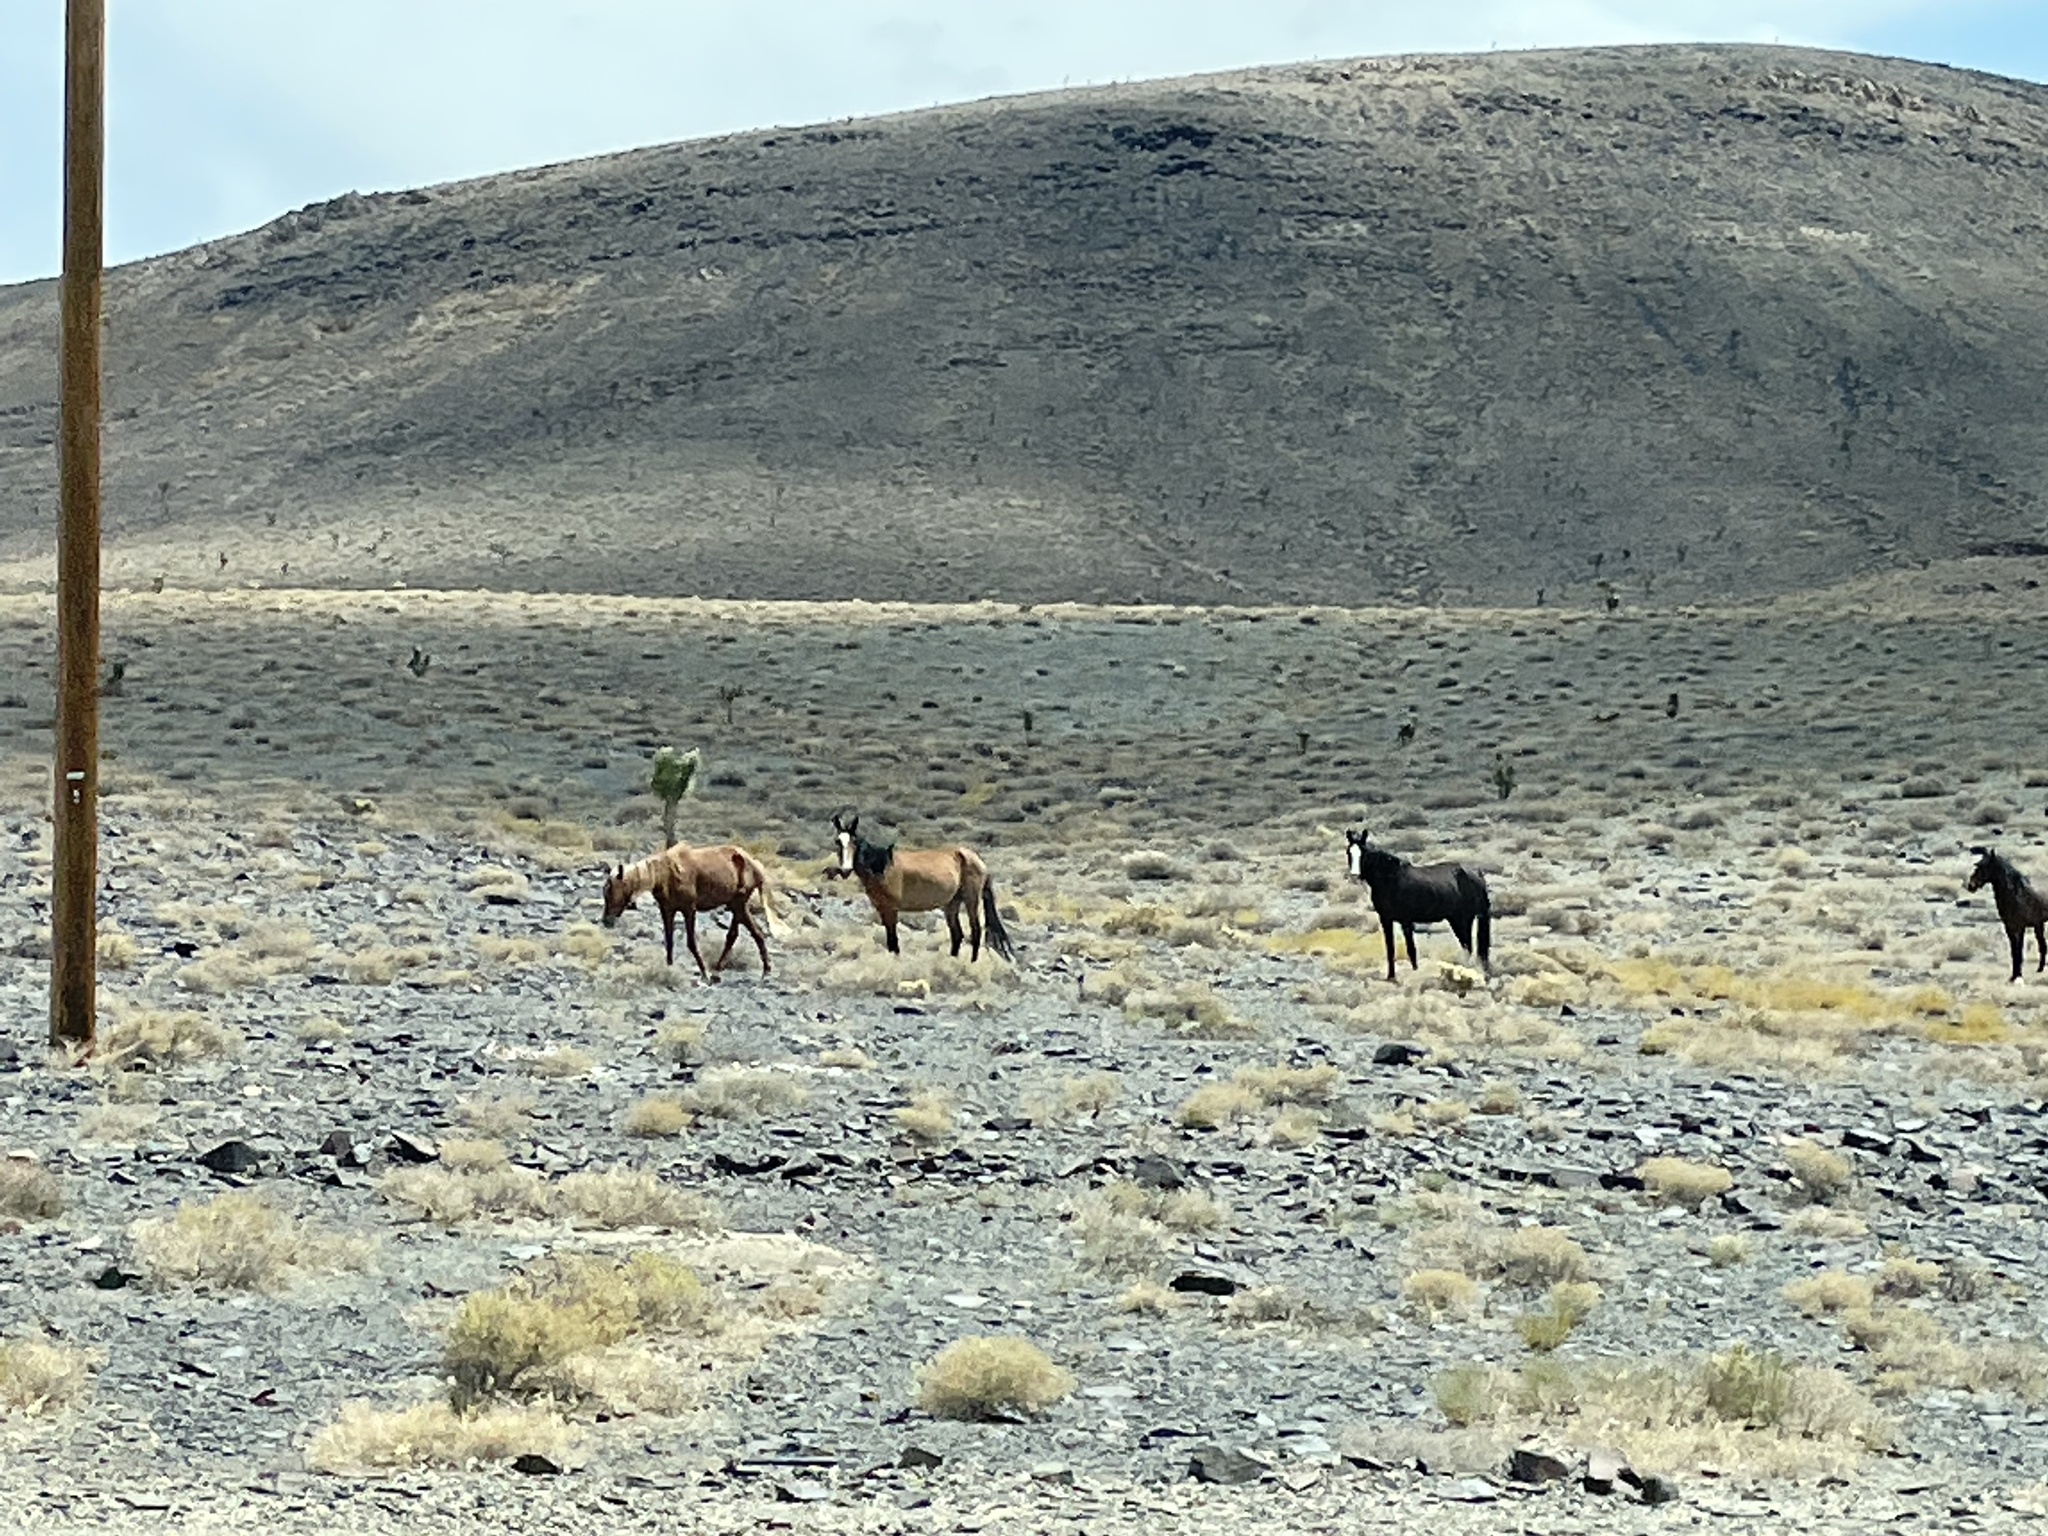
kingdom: Animalia
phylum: Chordata
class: Mammalia
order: Perissodactyla
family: Equidae
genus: Equus
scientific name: Equus caballus
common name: Horse
